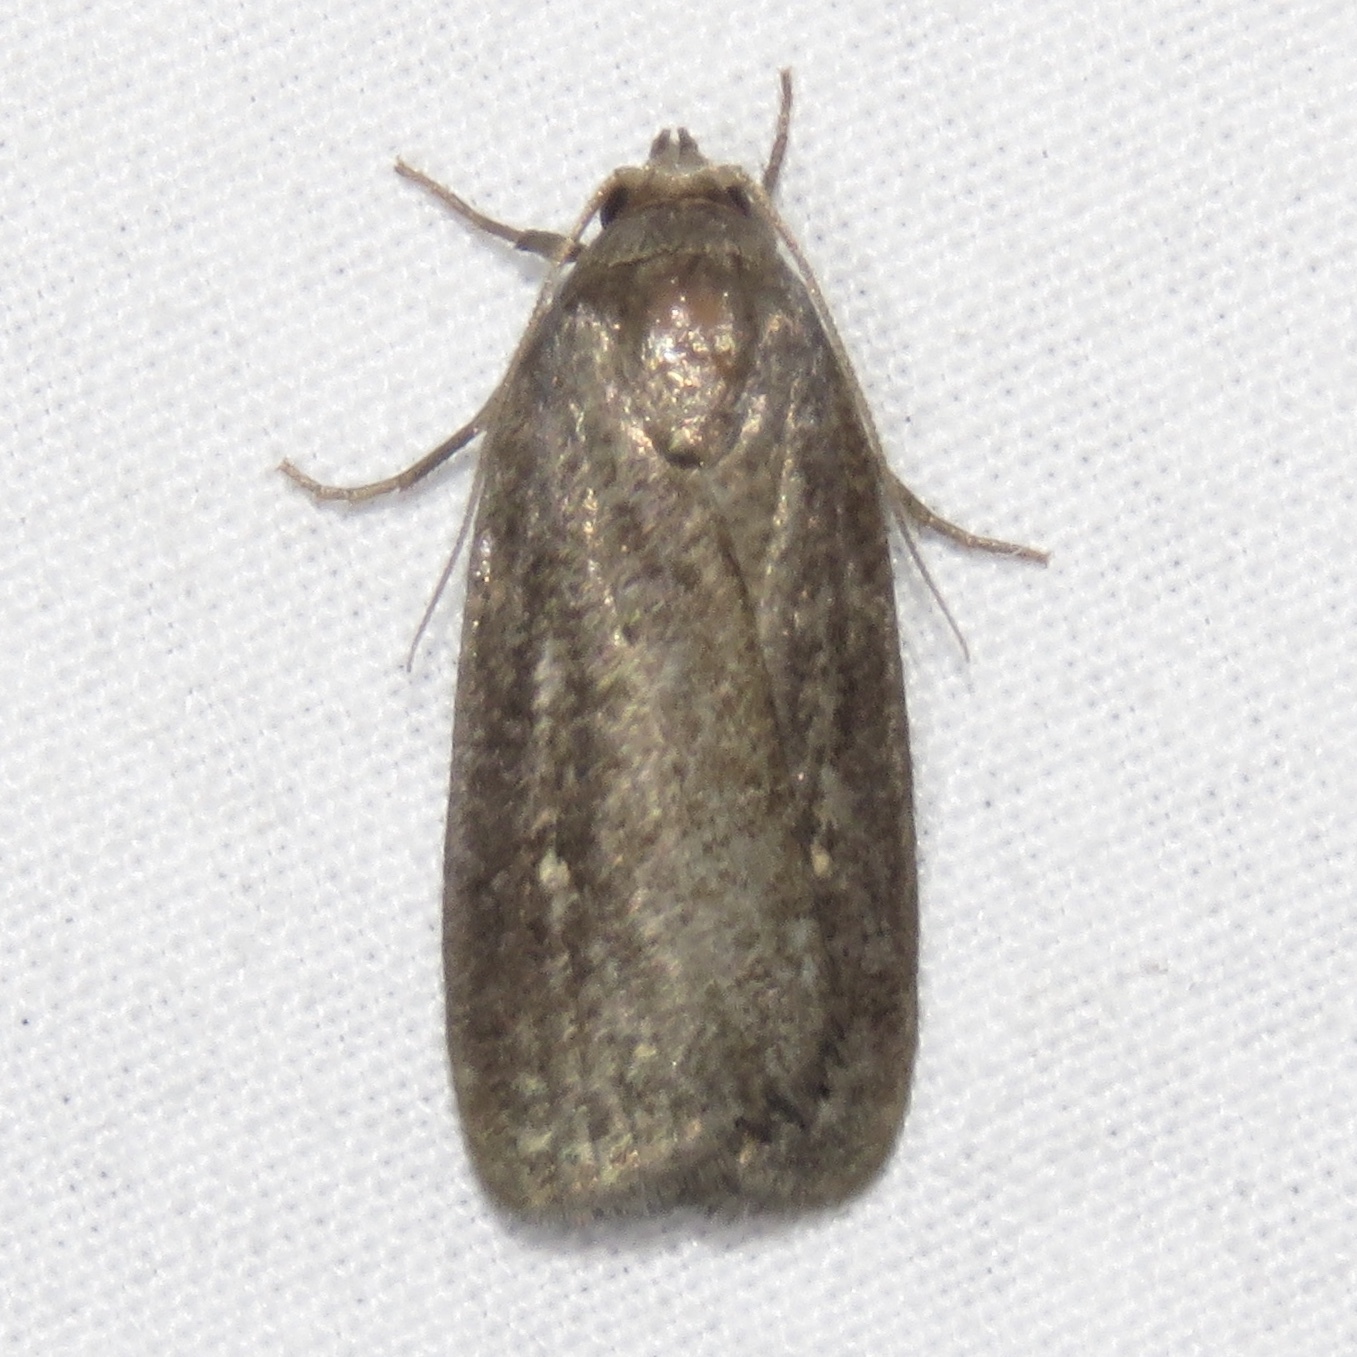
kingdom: Animalia
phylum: Arthropoda
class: Insecta
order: Lepidoptera
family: Noctuidae
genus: Proxenus
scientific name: Proxenus miranda
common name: Miranda moth
